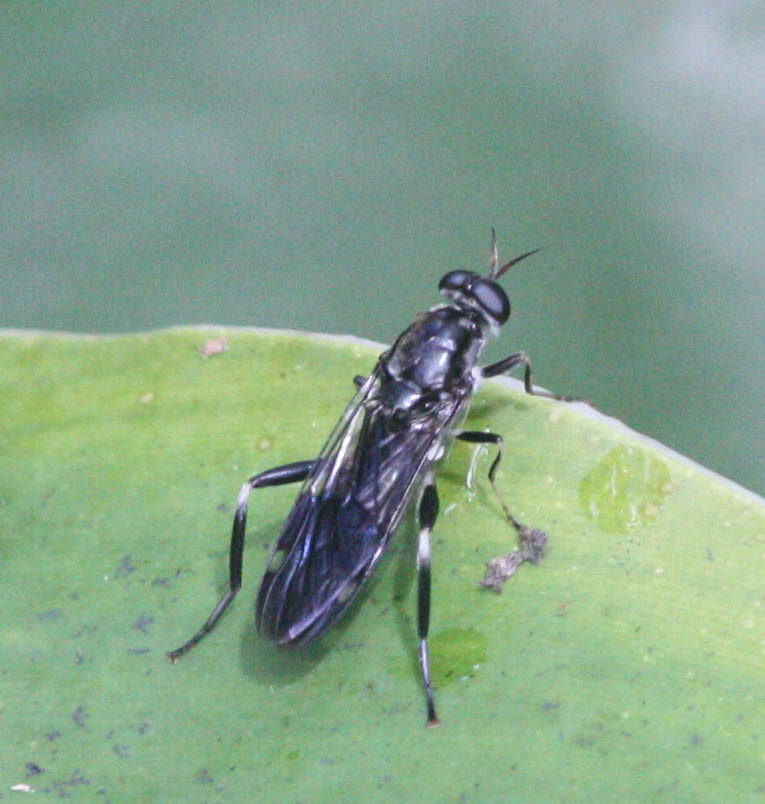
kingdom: Animalia
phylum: Arthropoda
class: Insecta
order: Diptera
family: Stratiomyidae
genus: Exaireta
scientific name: Exaireta spinigera
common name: Blue soldier fly
